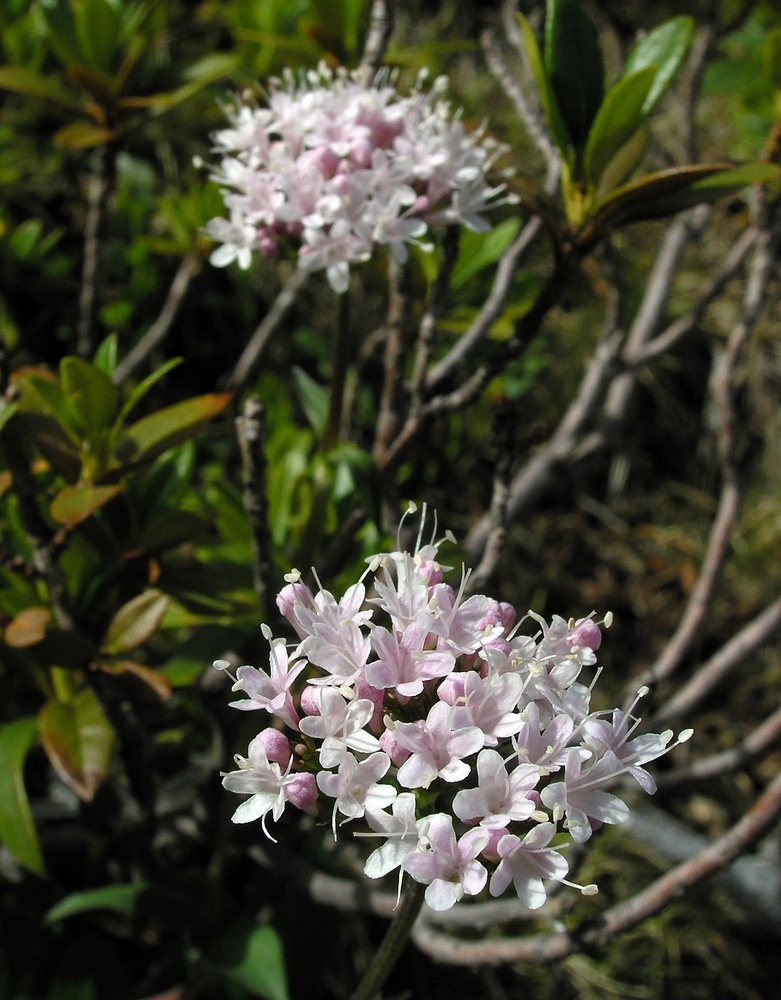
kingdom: Plantae
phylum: Tracheophyta
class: Magnoliopsida
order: Dipsacales
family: Caprifoliaceae
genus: Valeriana
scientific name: Valeriana montana
